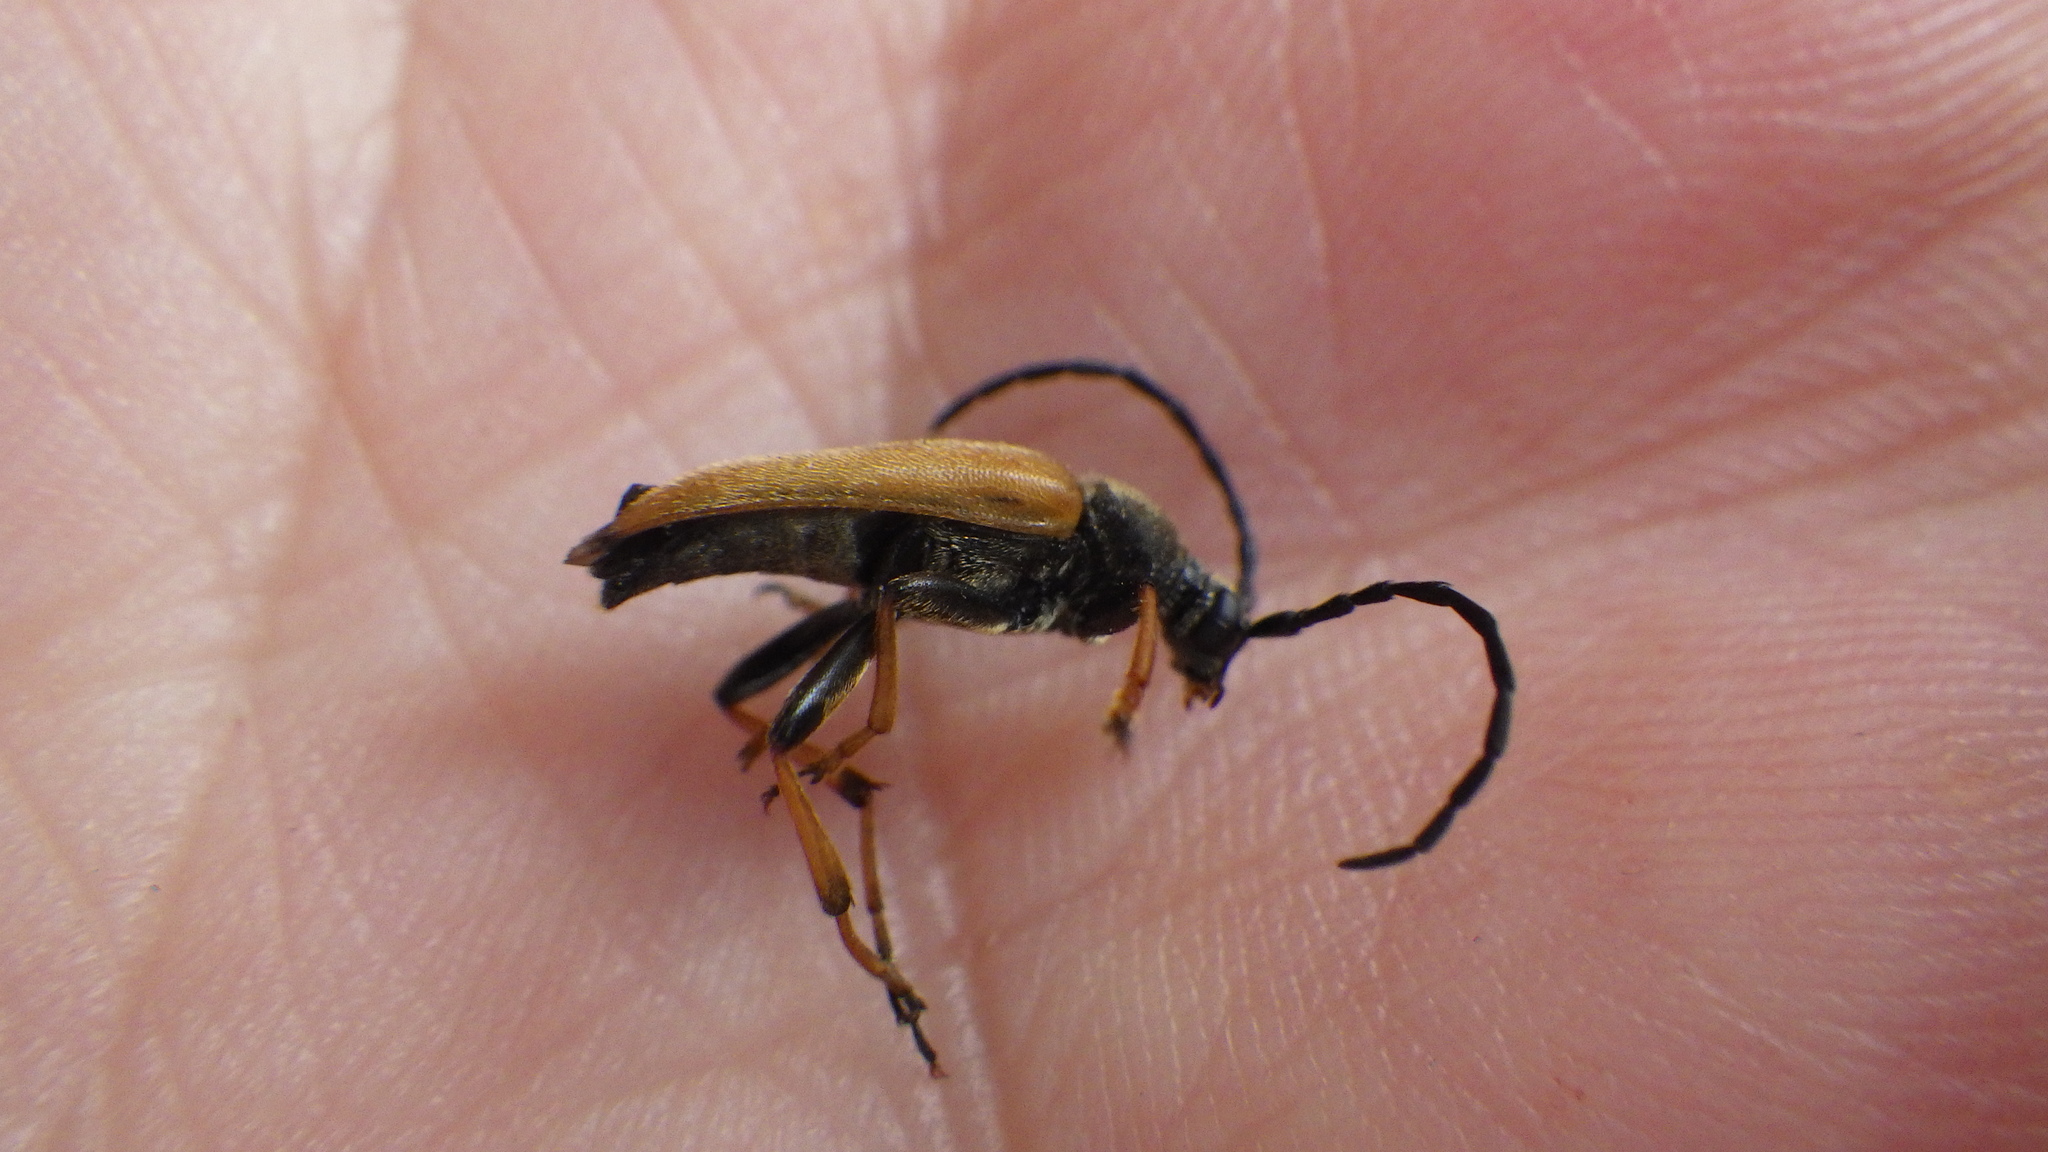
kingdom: Animalia
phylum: Arthropoda
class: Insecta
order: Coleoptera
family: Cerambycidae
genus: Stictoleptura
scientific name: Stictoleptura rubra
